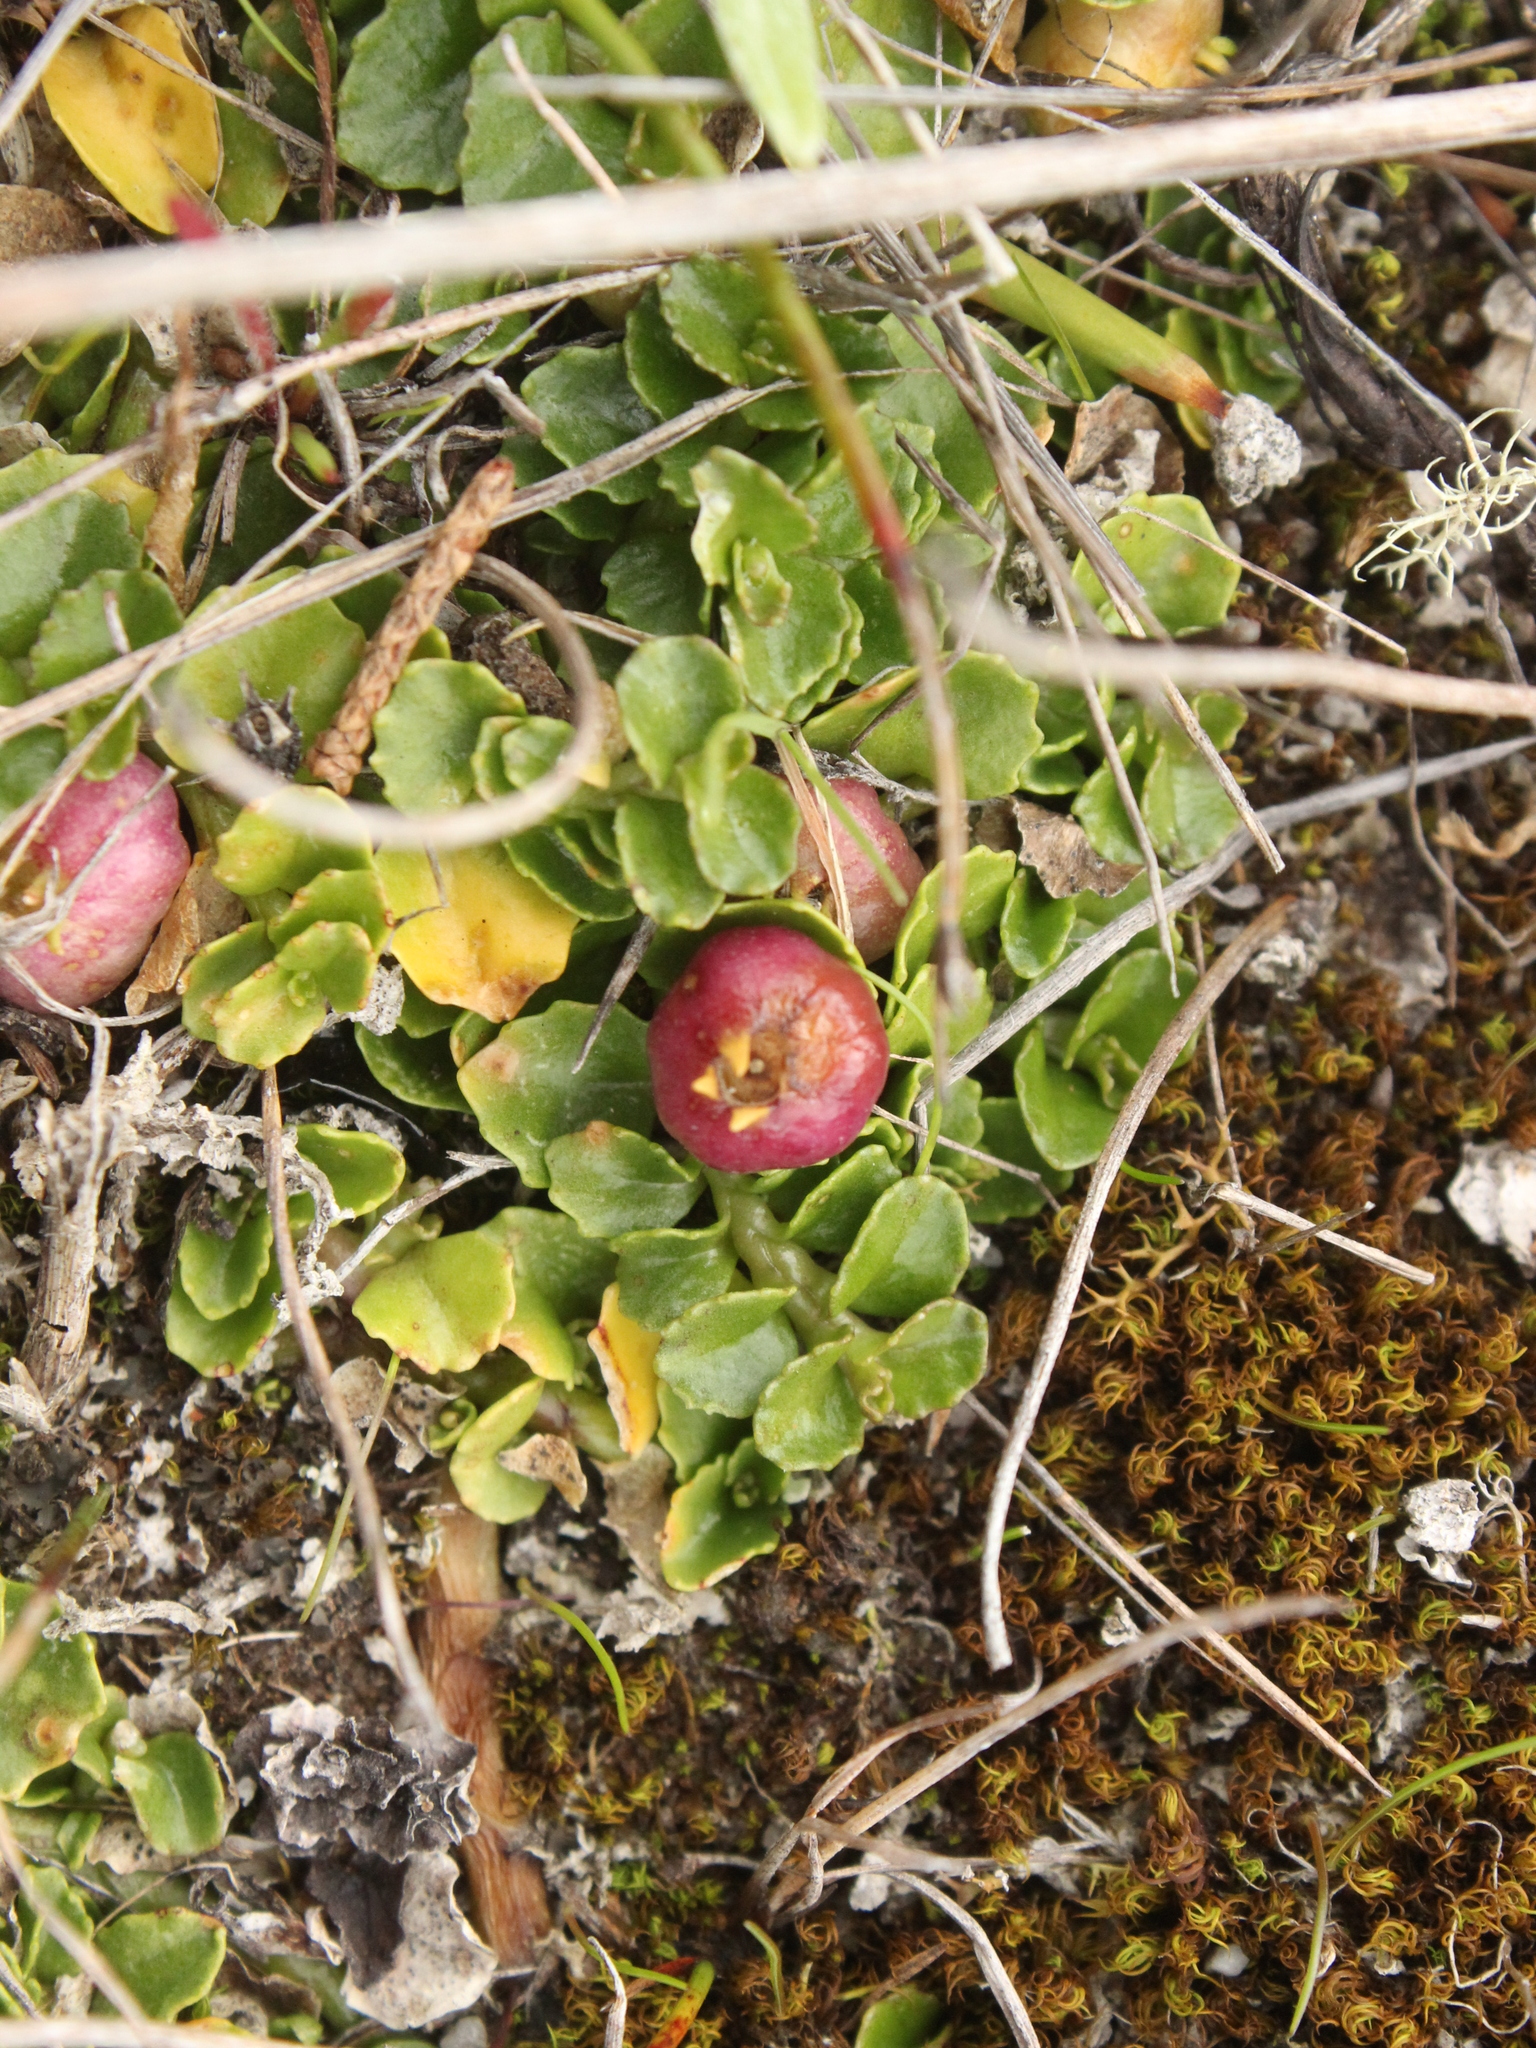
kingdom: Plantae
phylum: Tracheophyta
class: Magnoliopsida
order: Asterales
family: Campanulaceae
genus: Lobelia
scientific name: Lobelia arenaria
